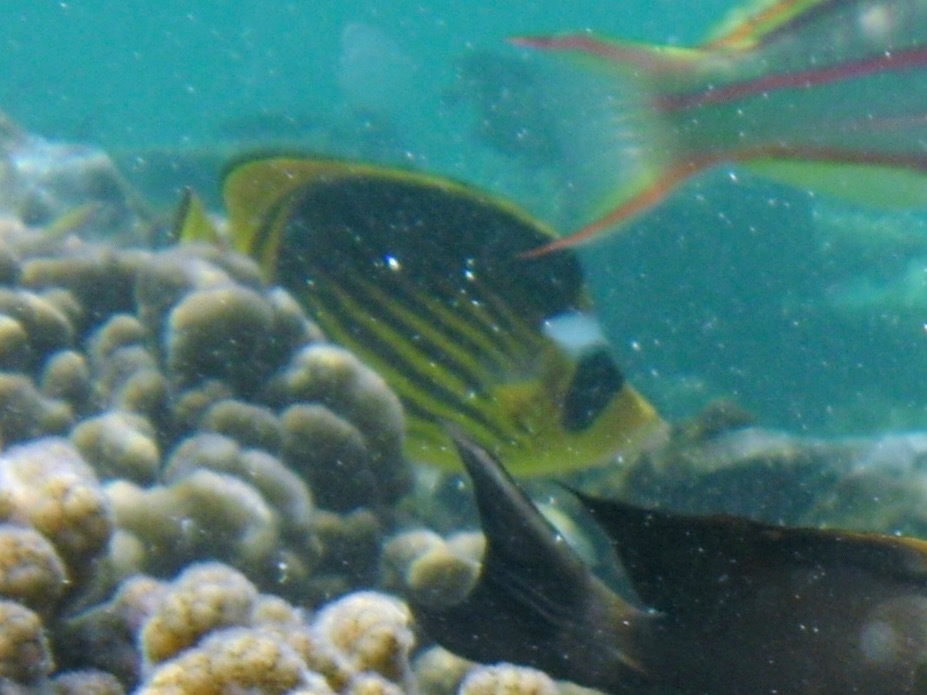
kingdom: Animalia
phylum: Chordata
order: Perciformes
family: Chaetodontidae
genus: Chaetodon
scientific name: Chaetodon fasciatus
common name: Diagonal butterflyfish
